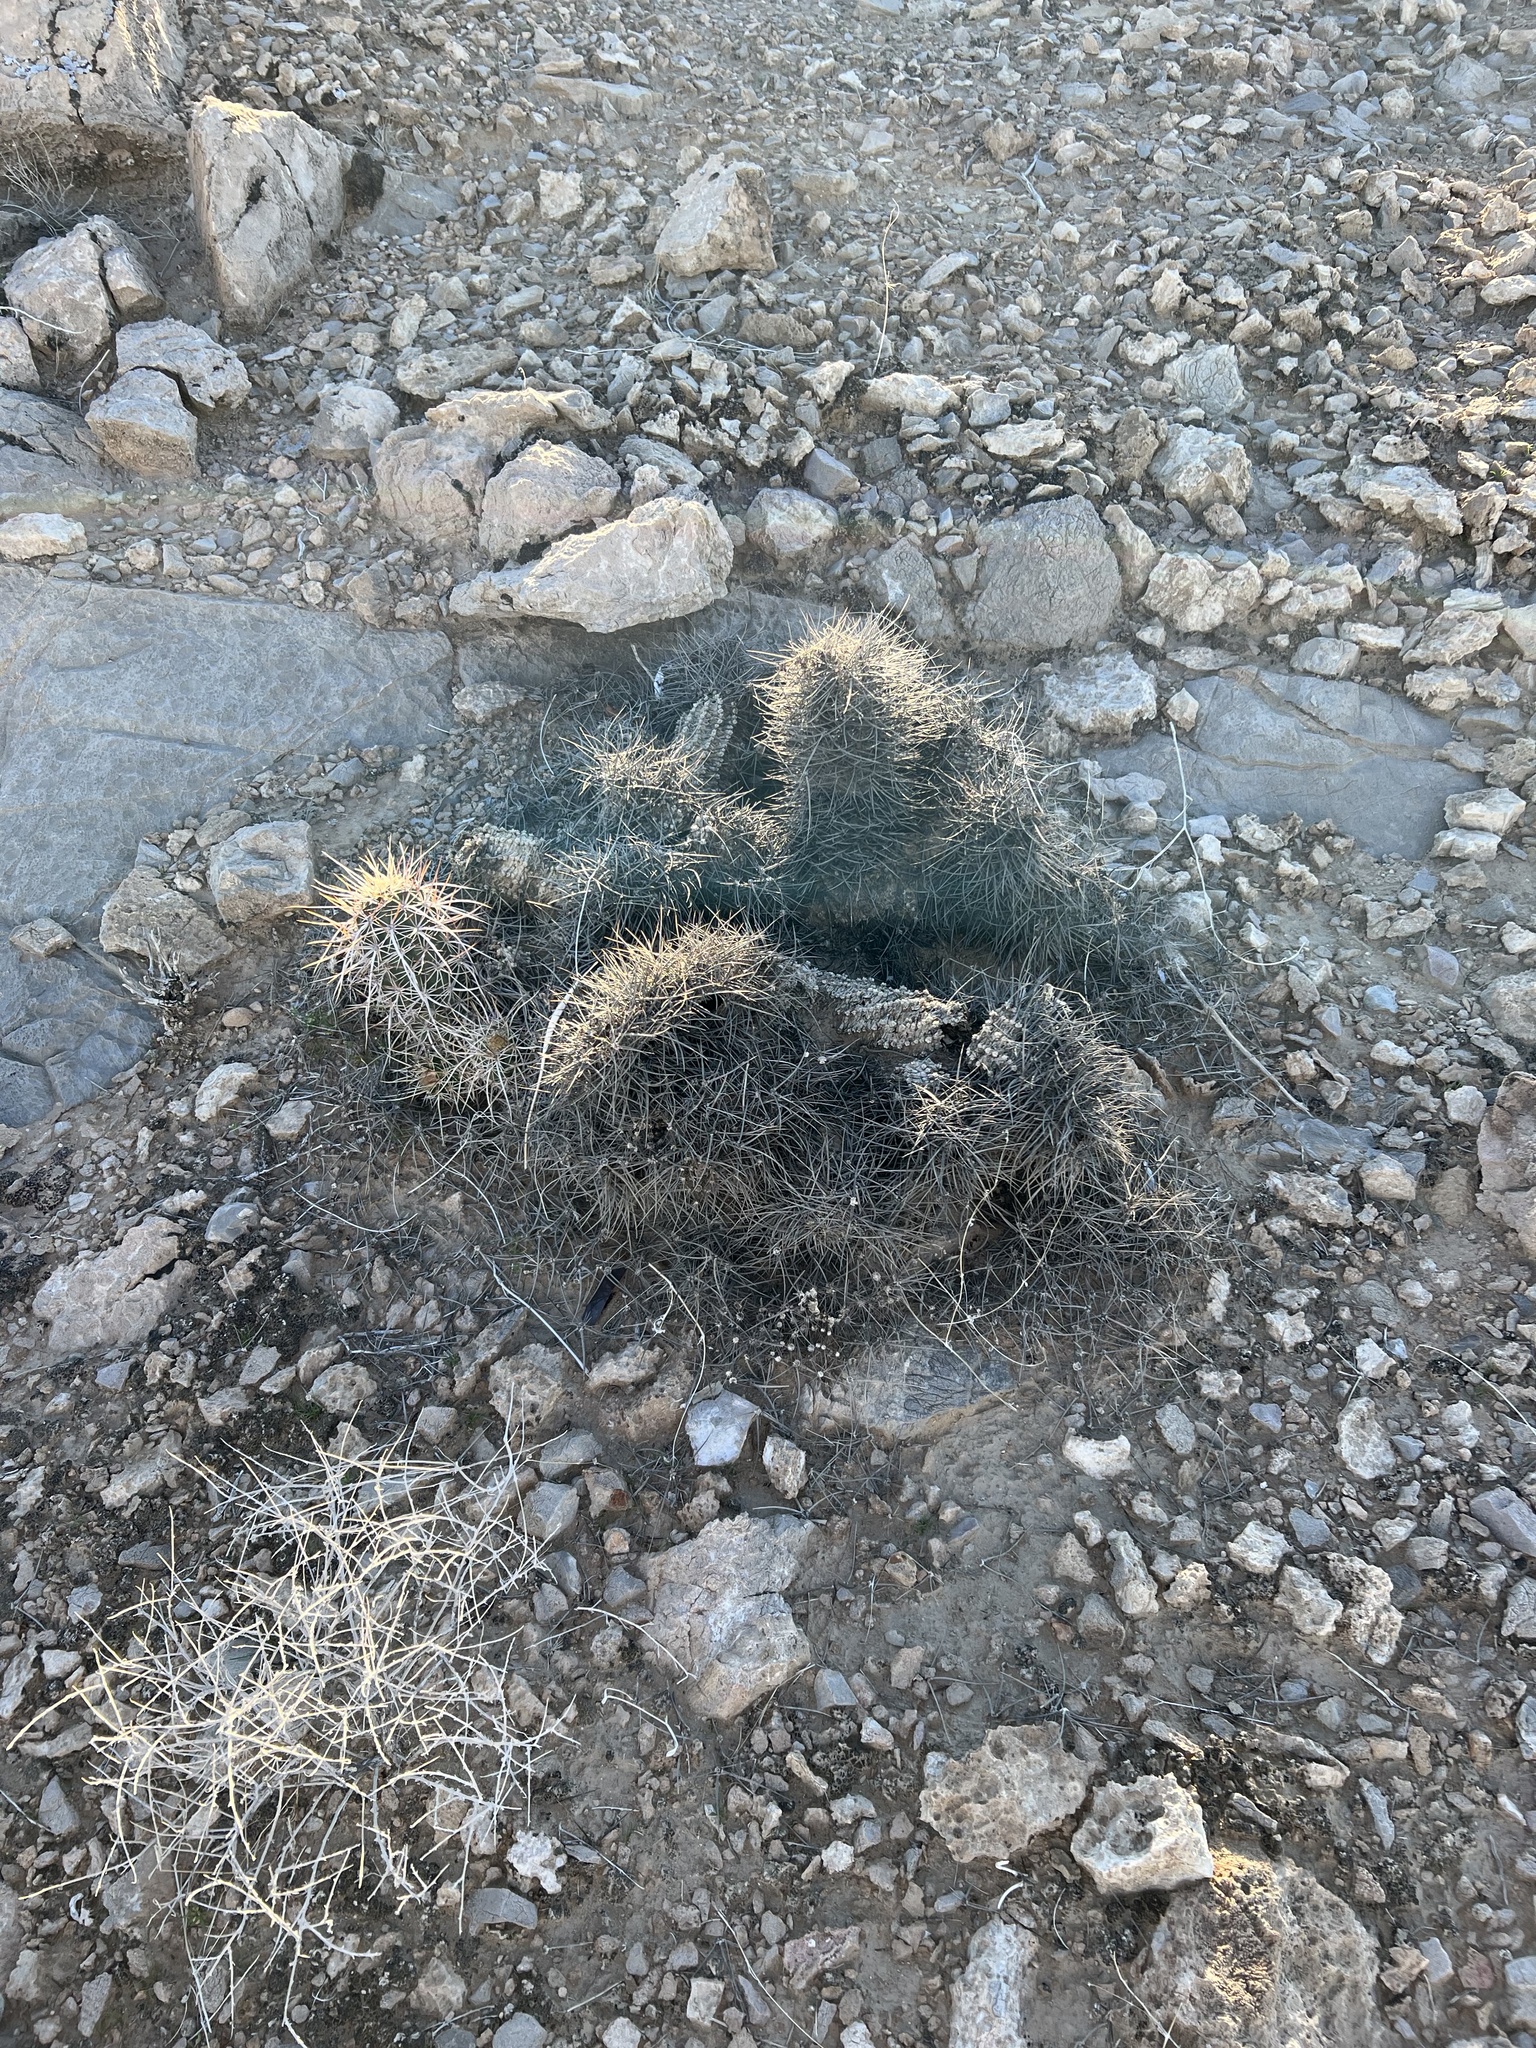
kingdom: Plantae
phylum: Tracheophyta
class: Magnoliopsida
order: Caryophyllales
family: Cactaceae
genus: Echinocereus
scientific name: Echinocereus engelmannii
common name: Engelmann's hedgehog cactus
